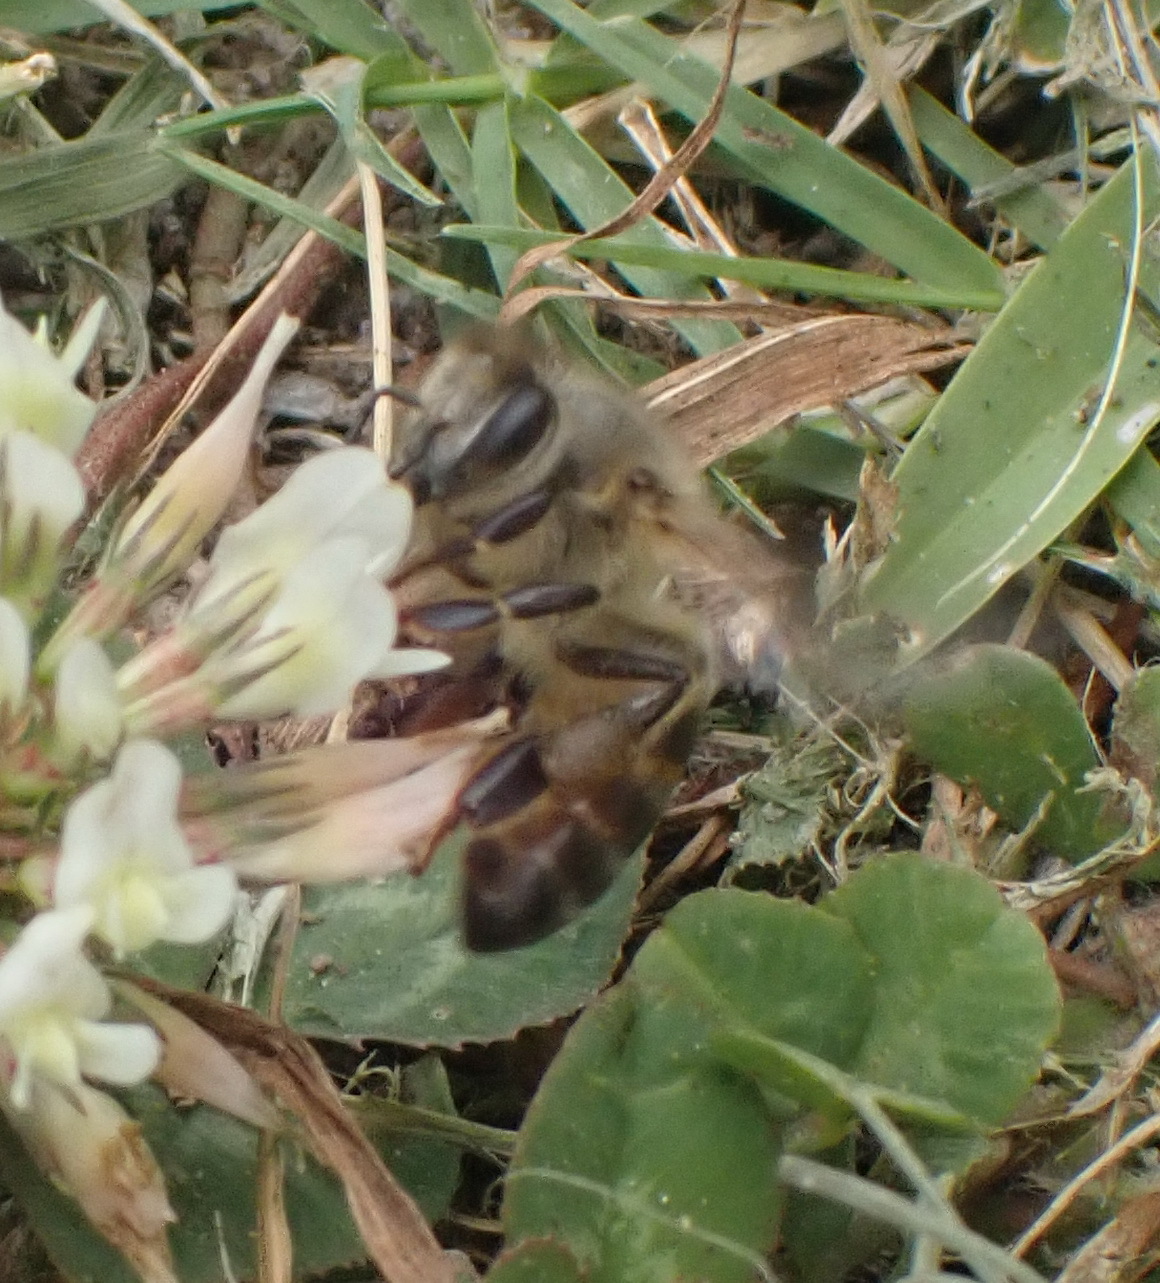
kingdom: Animalia
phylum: Arthropoda
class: Insecta
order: Hymenoptera
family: Apidae
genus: Apis
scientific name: Apis mellifera
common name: Honey bee
